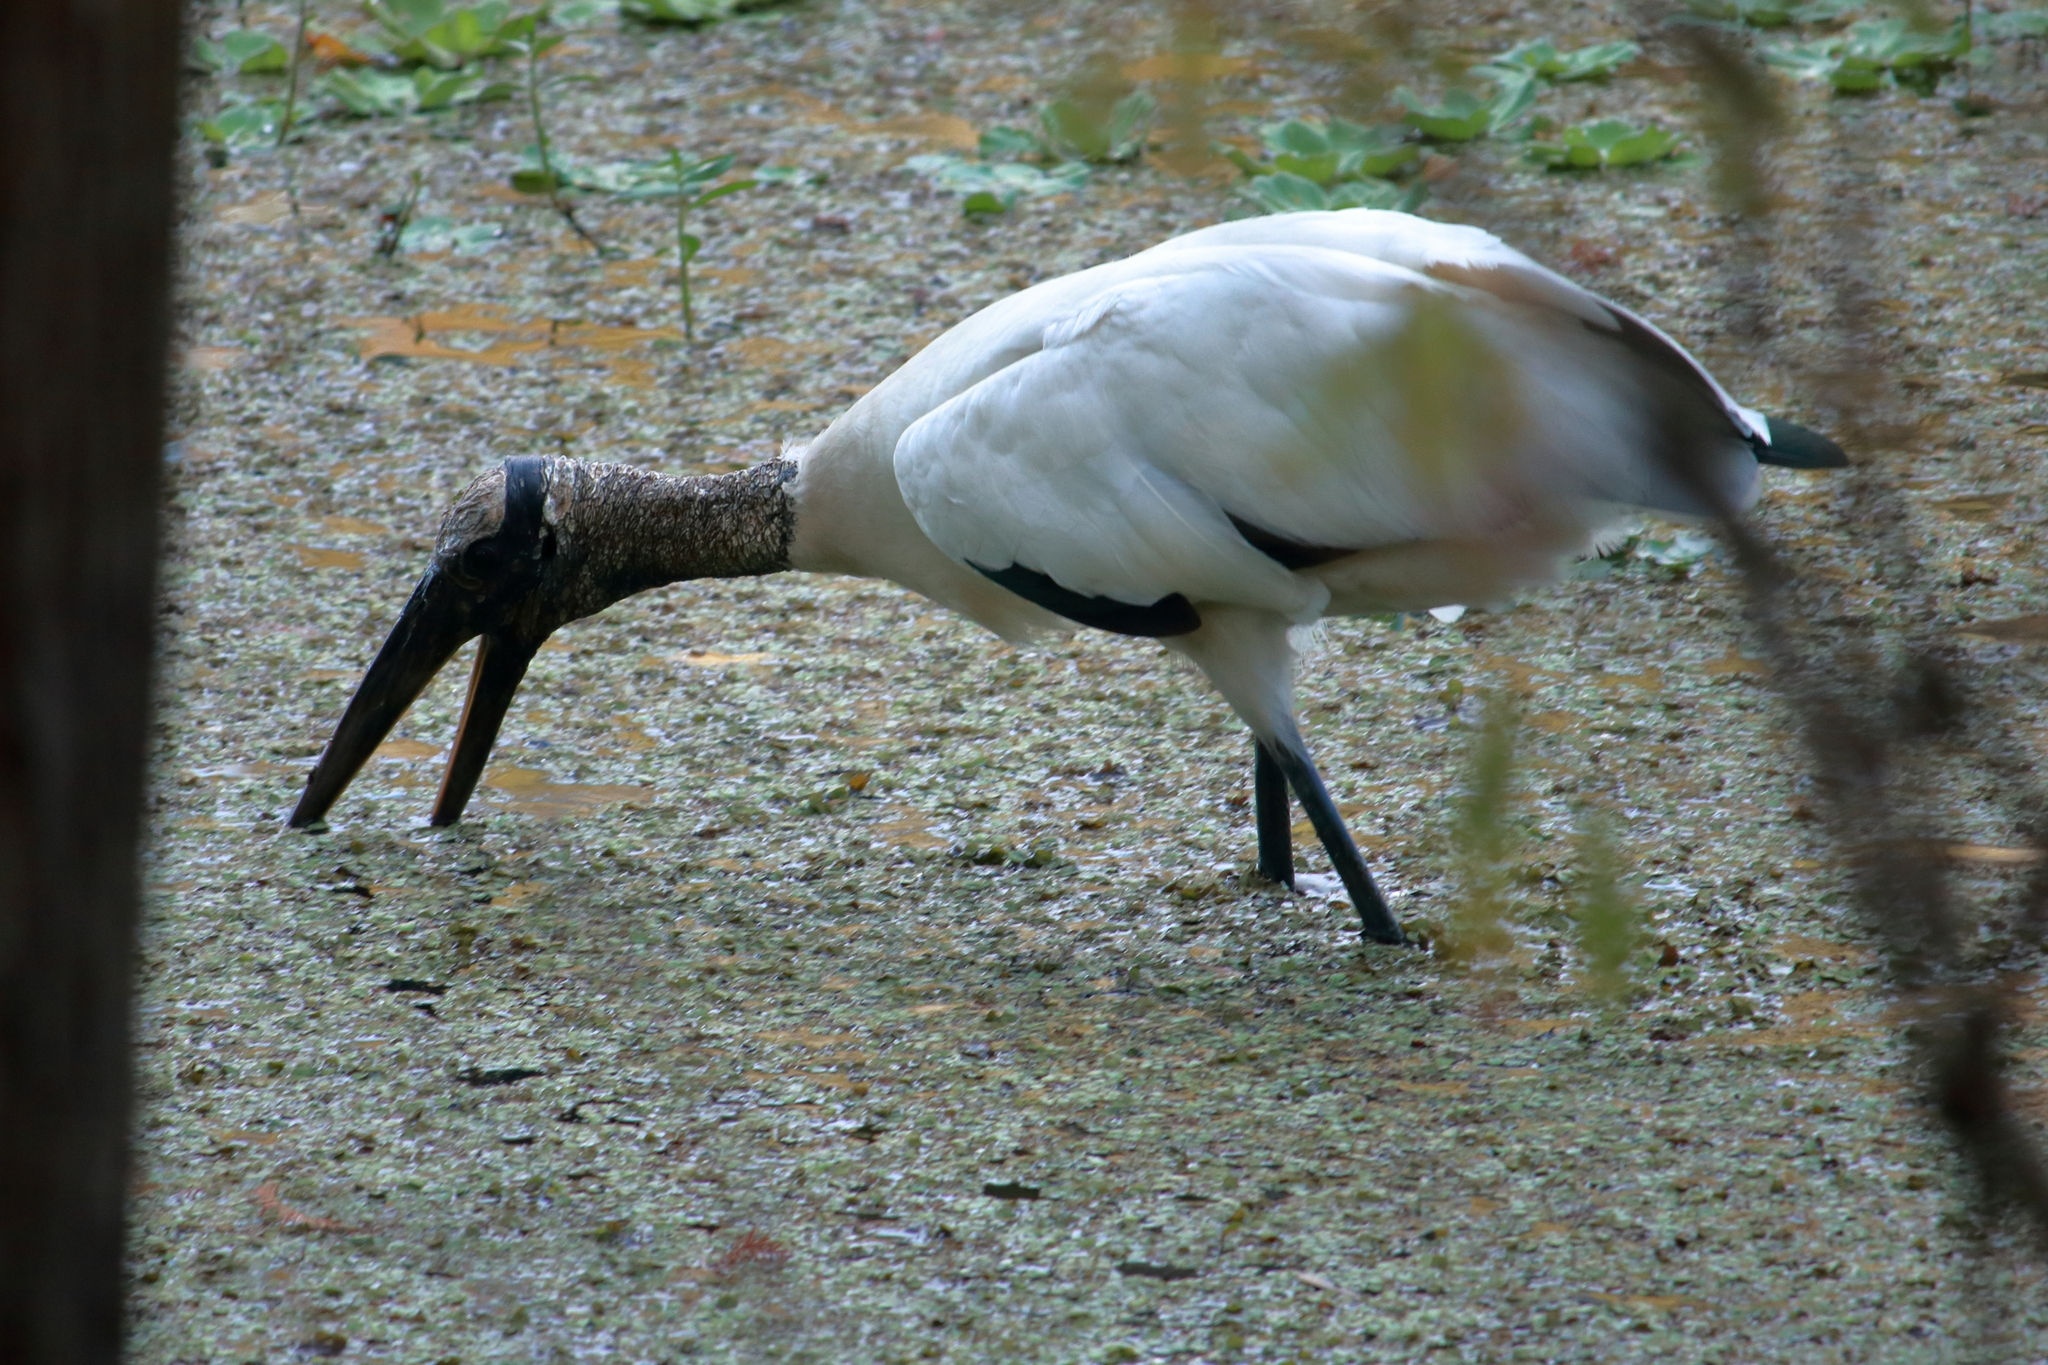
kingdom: Animalia
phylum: Chordata
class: Aves
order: Ciconiiformes
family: Ciconiidae
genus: Mycteria
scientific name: Mycteria americana
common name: Wood stork
